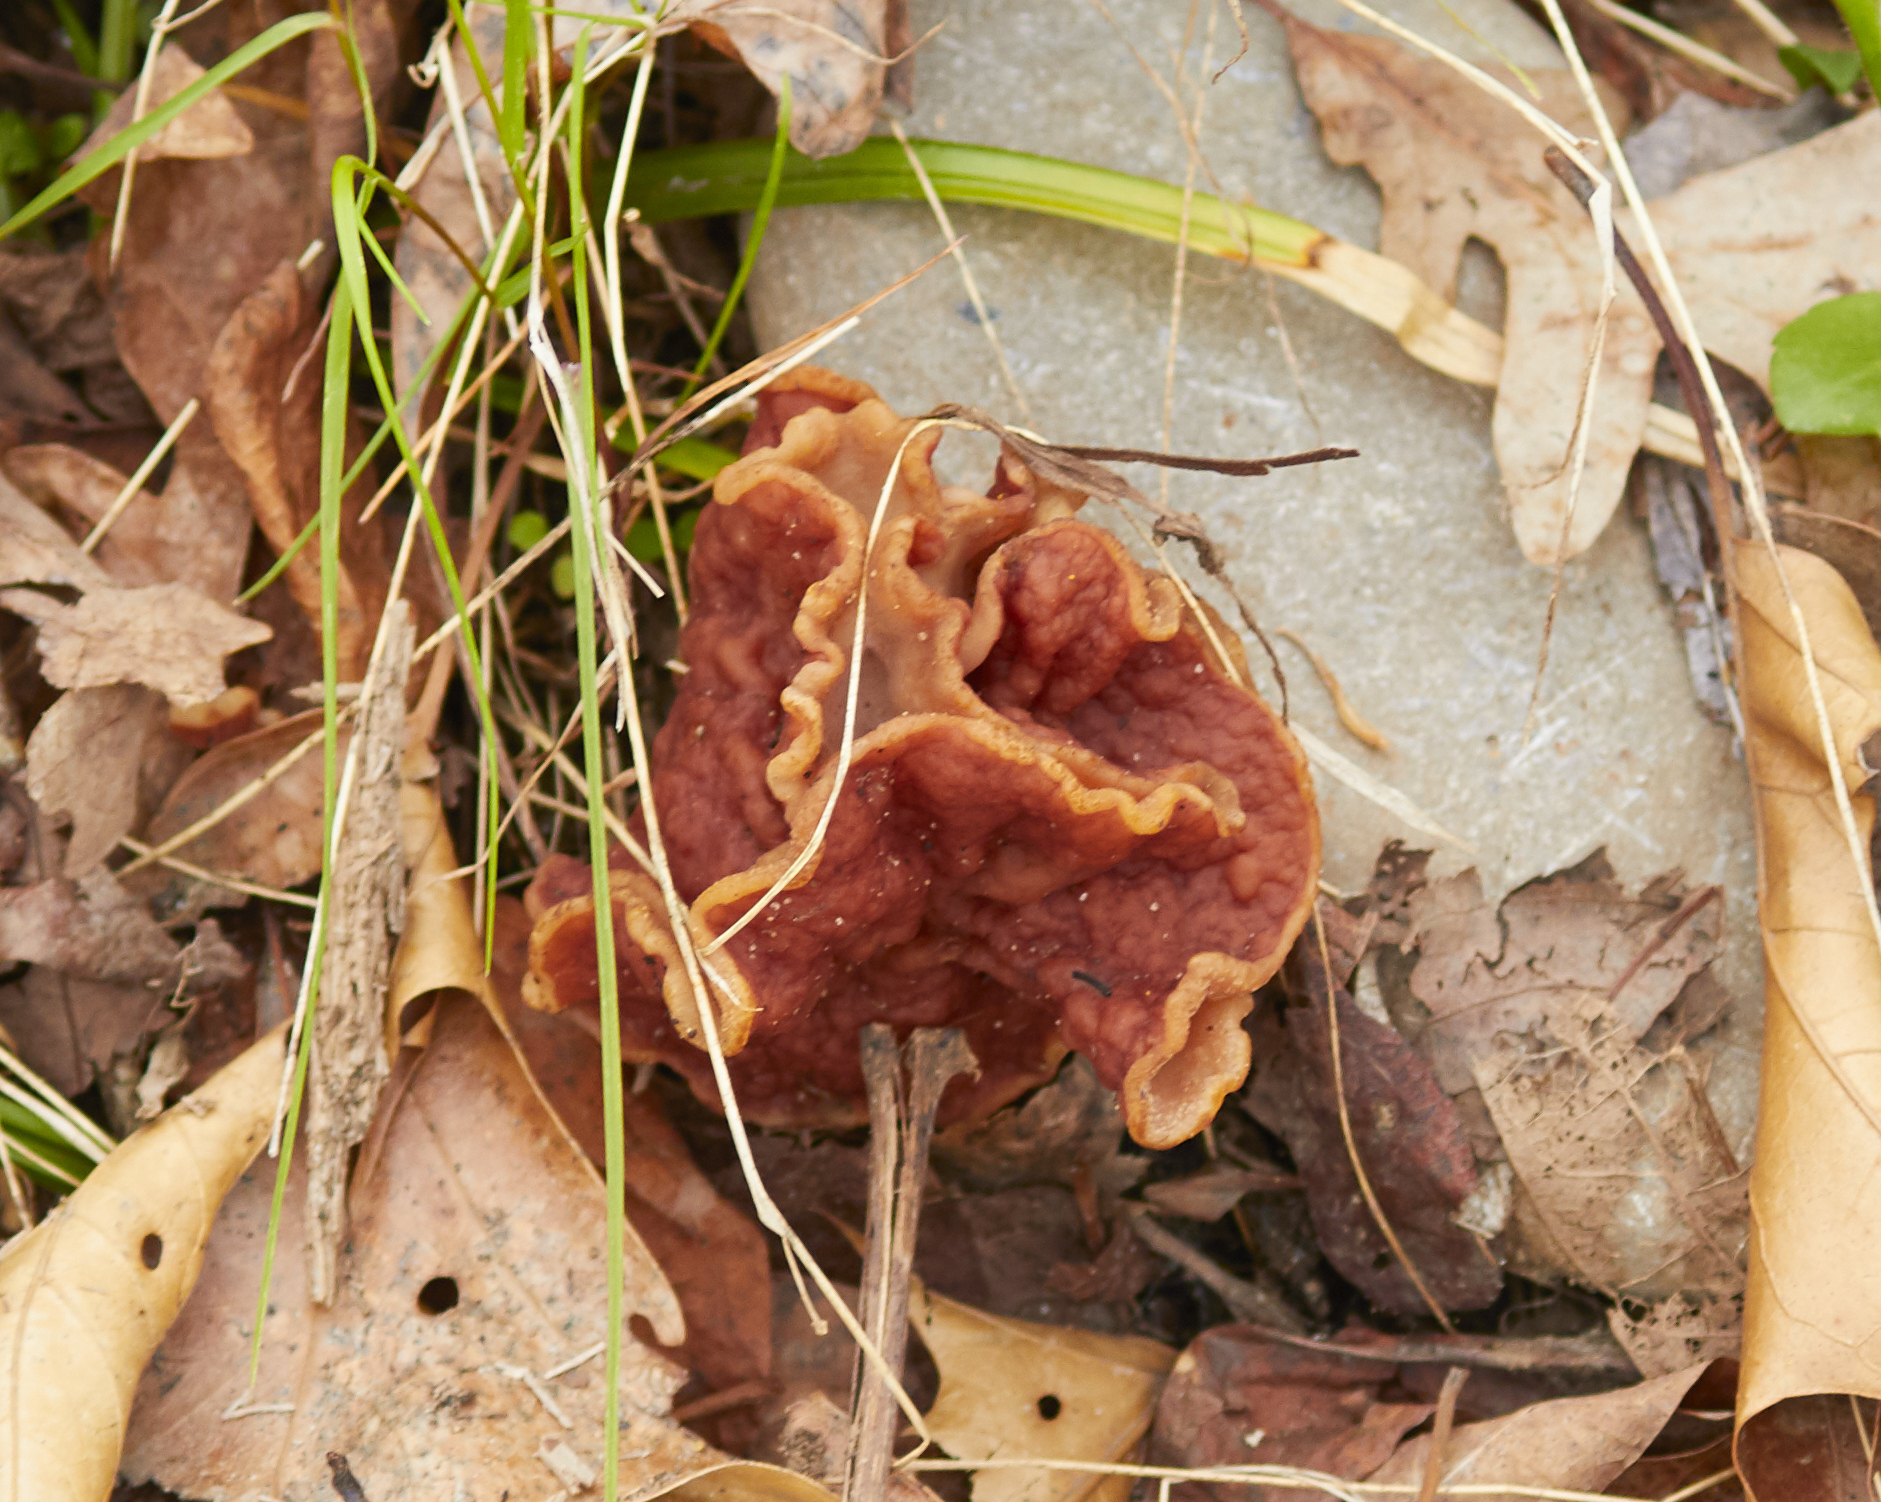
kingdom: Fungi
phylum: Ascomycota
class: Pezizomycetes
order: Pezizales
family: Discinaceae
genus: Discina
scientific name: Discina brunnea
